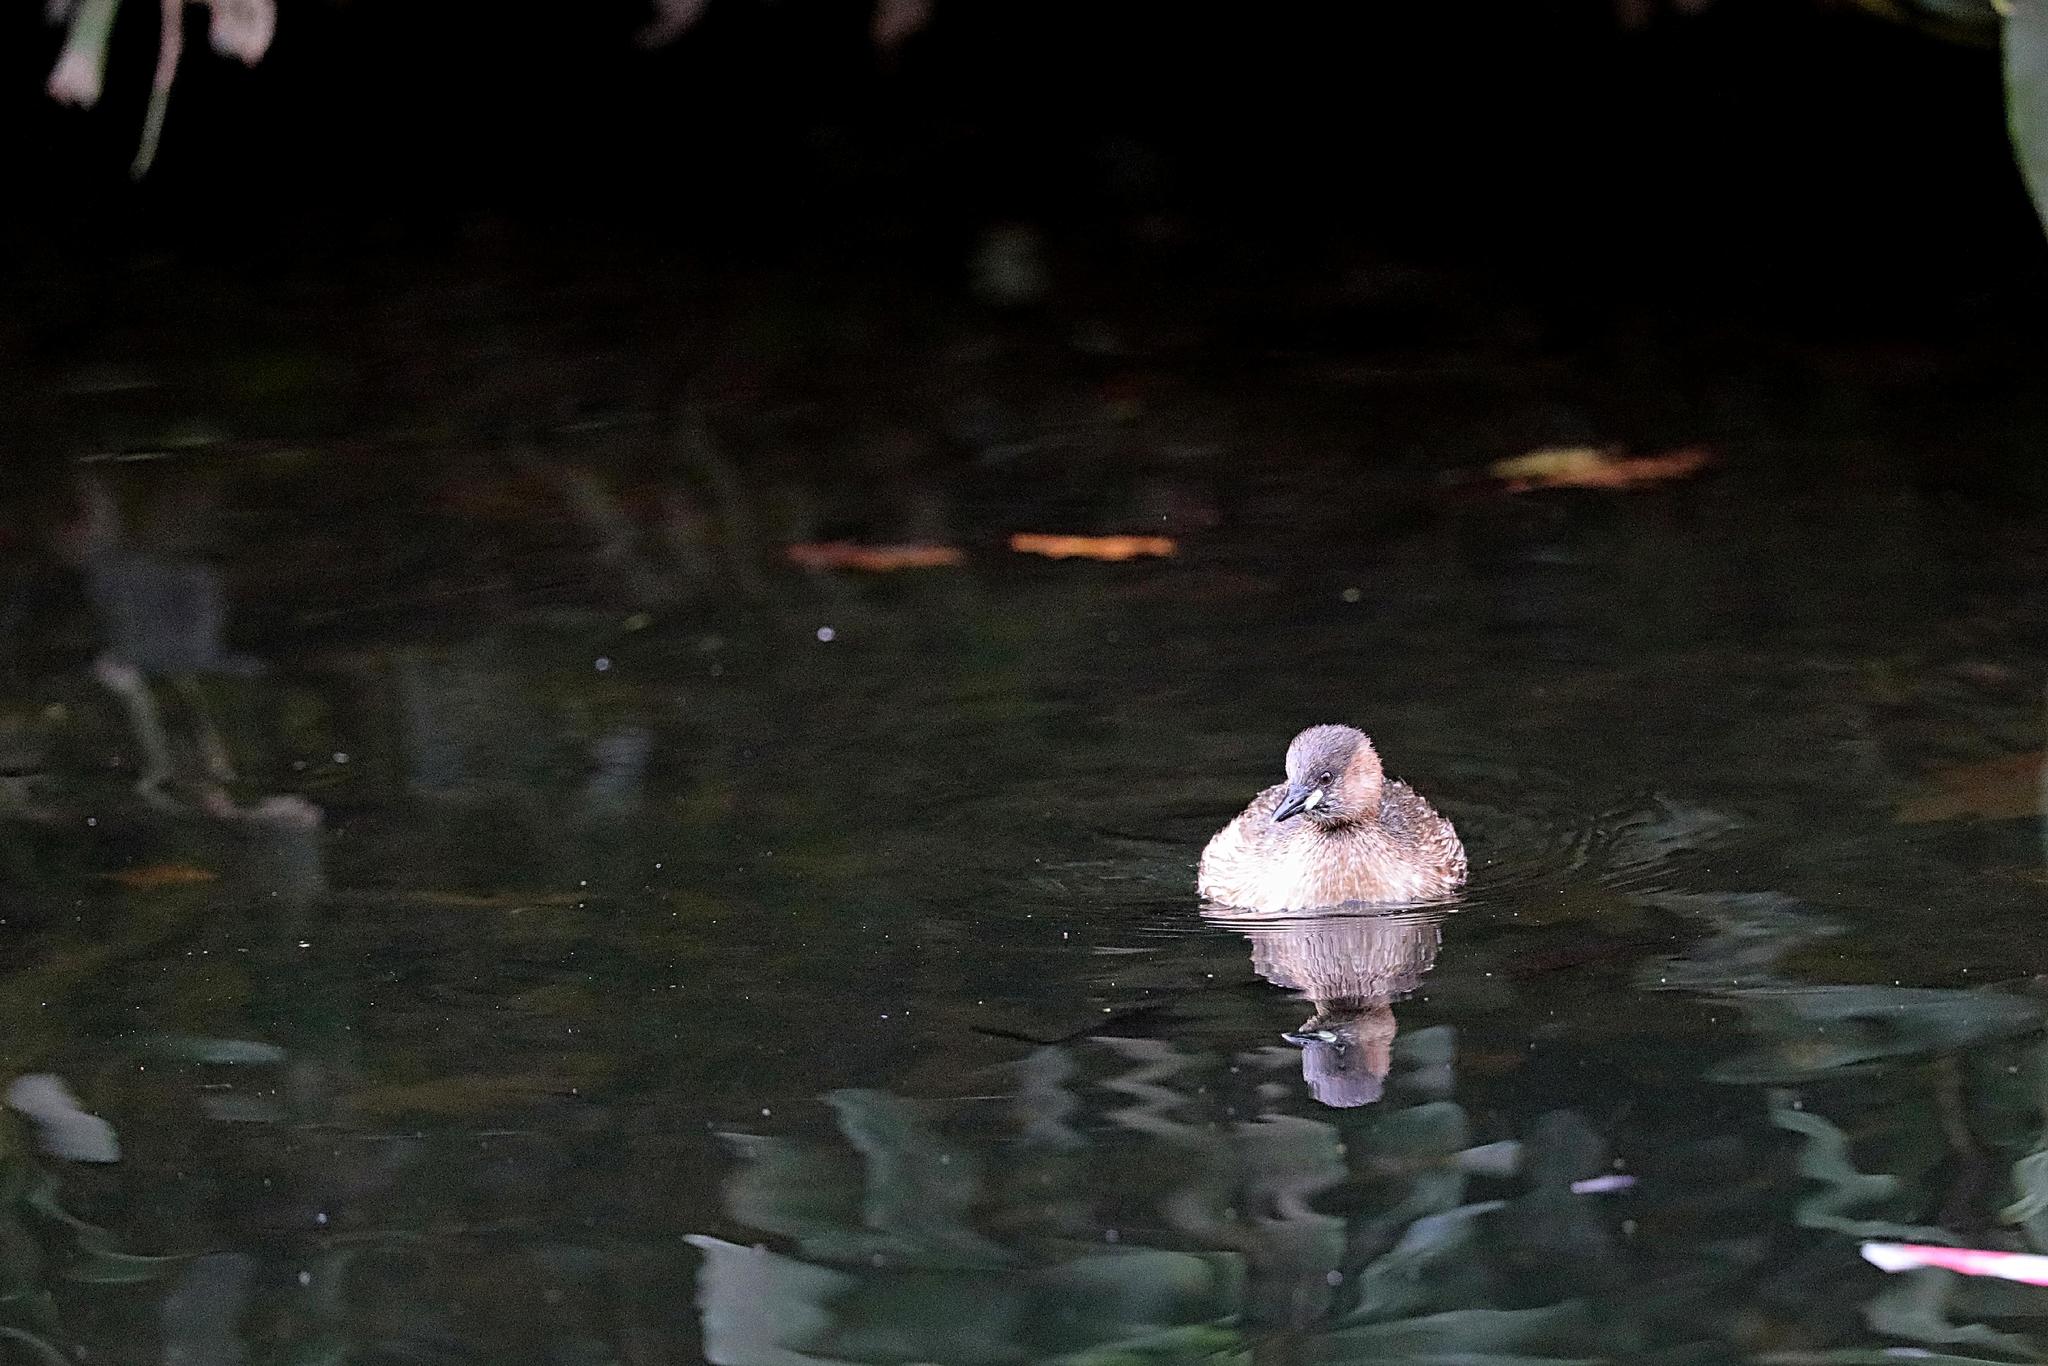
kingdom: Animalia
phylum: Chordata
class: Aves
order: Podicipediformes
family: Podicipedidae
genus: Tachybaptus
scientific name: Tachybaptus ruficollis
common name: Little grebe
